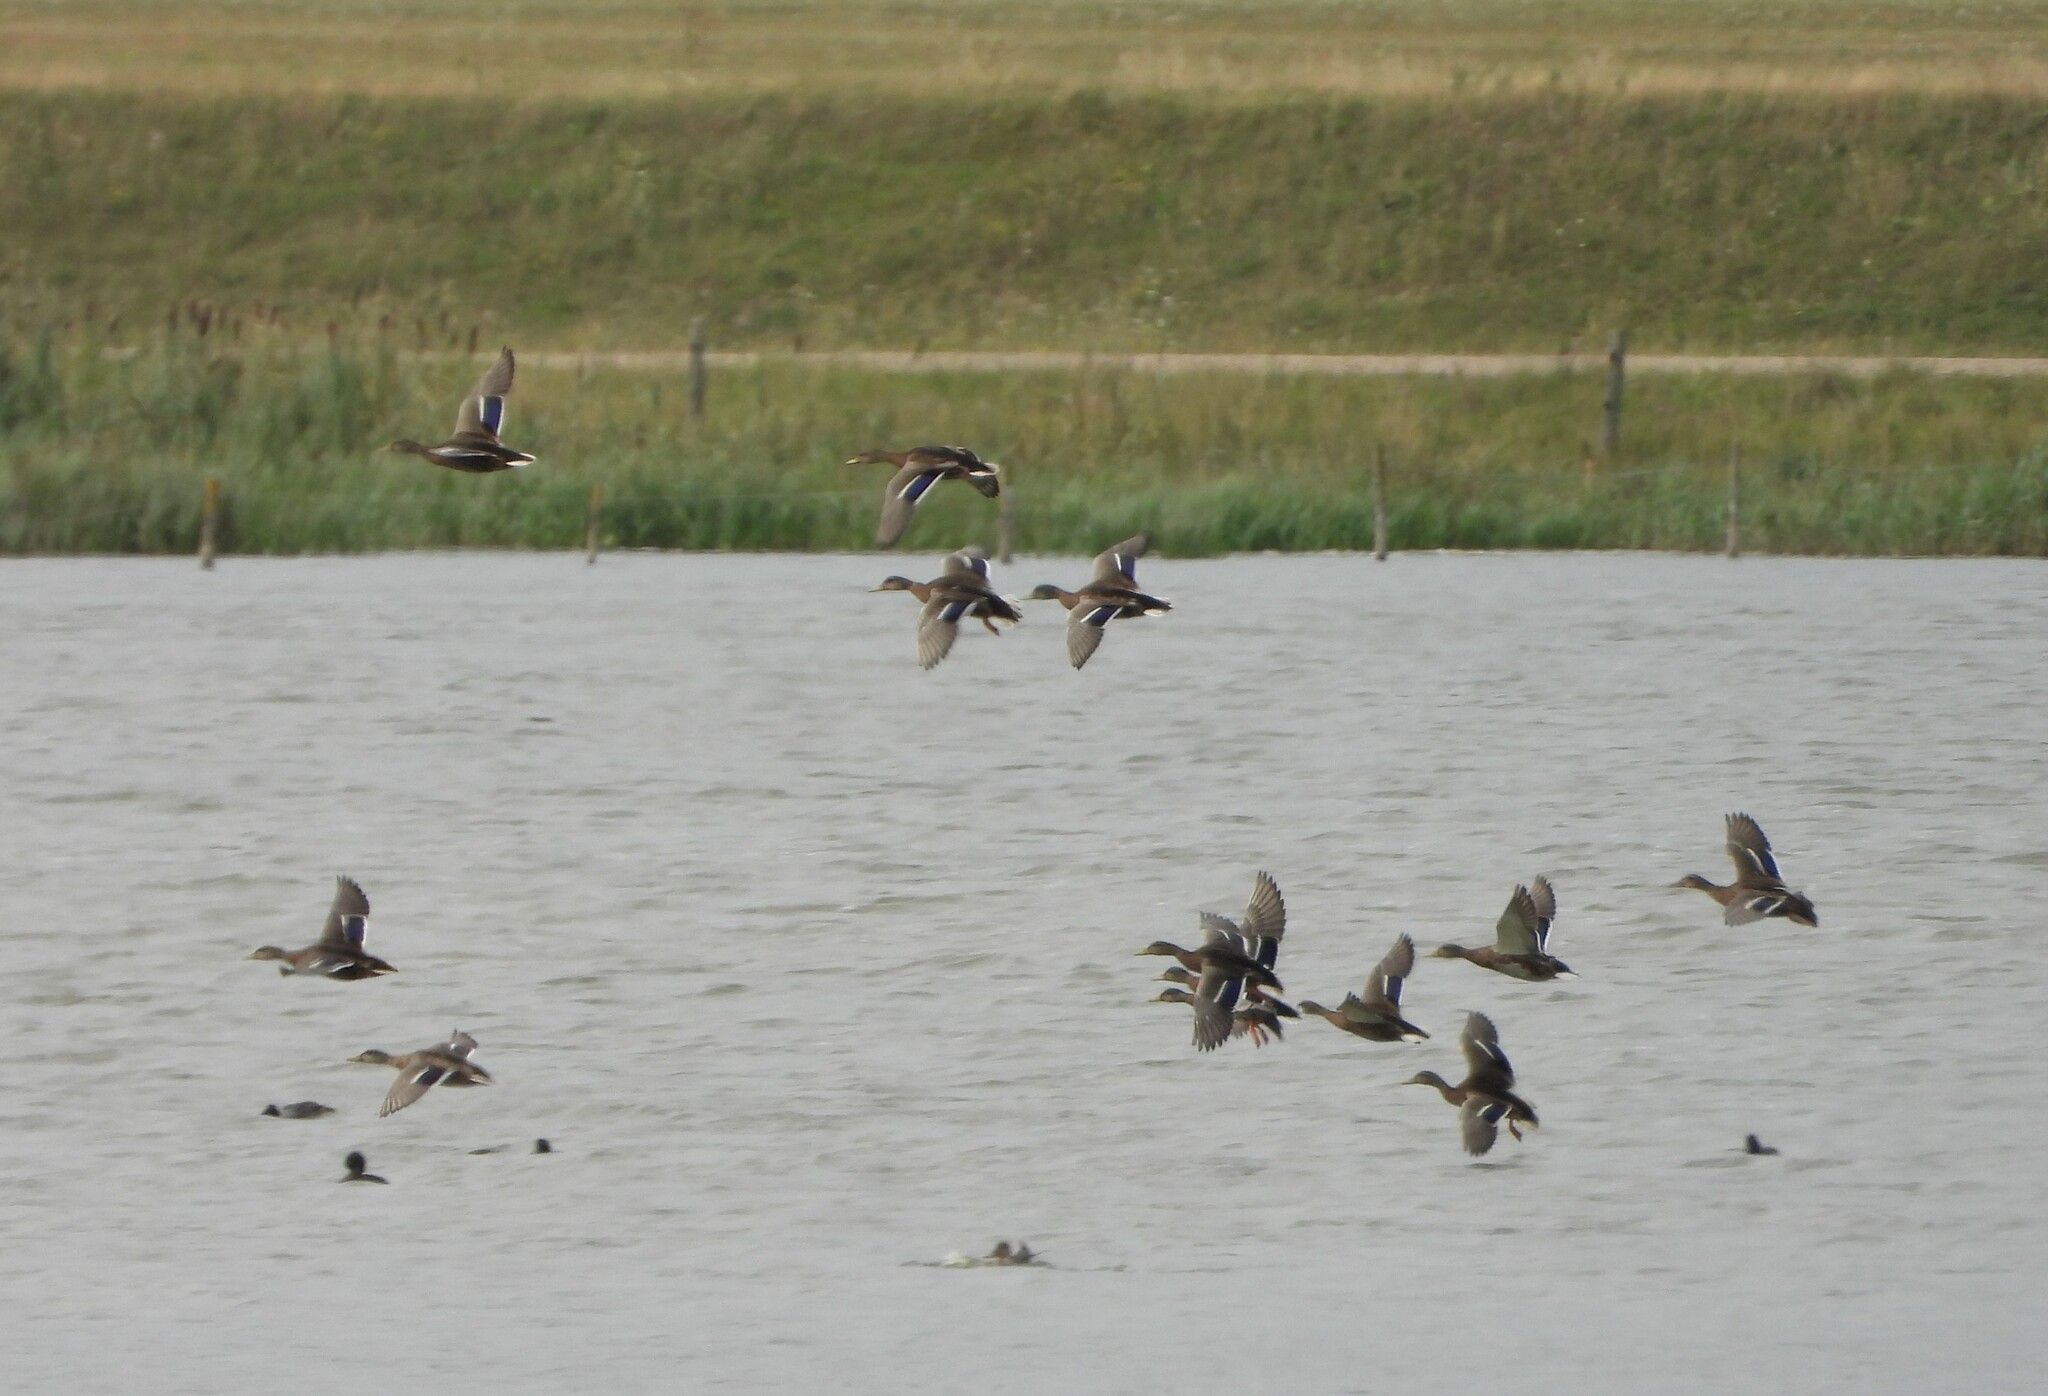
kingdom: Animalia
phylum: Chordata
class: Aves
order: Anseriformes
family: Anatidae
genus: Anas
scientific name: Anas platyrhynchos
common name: Mallard
